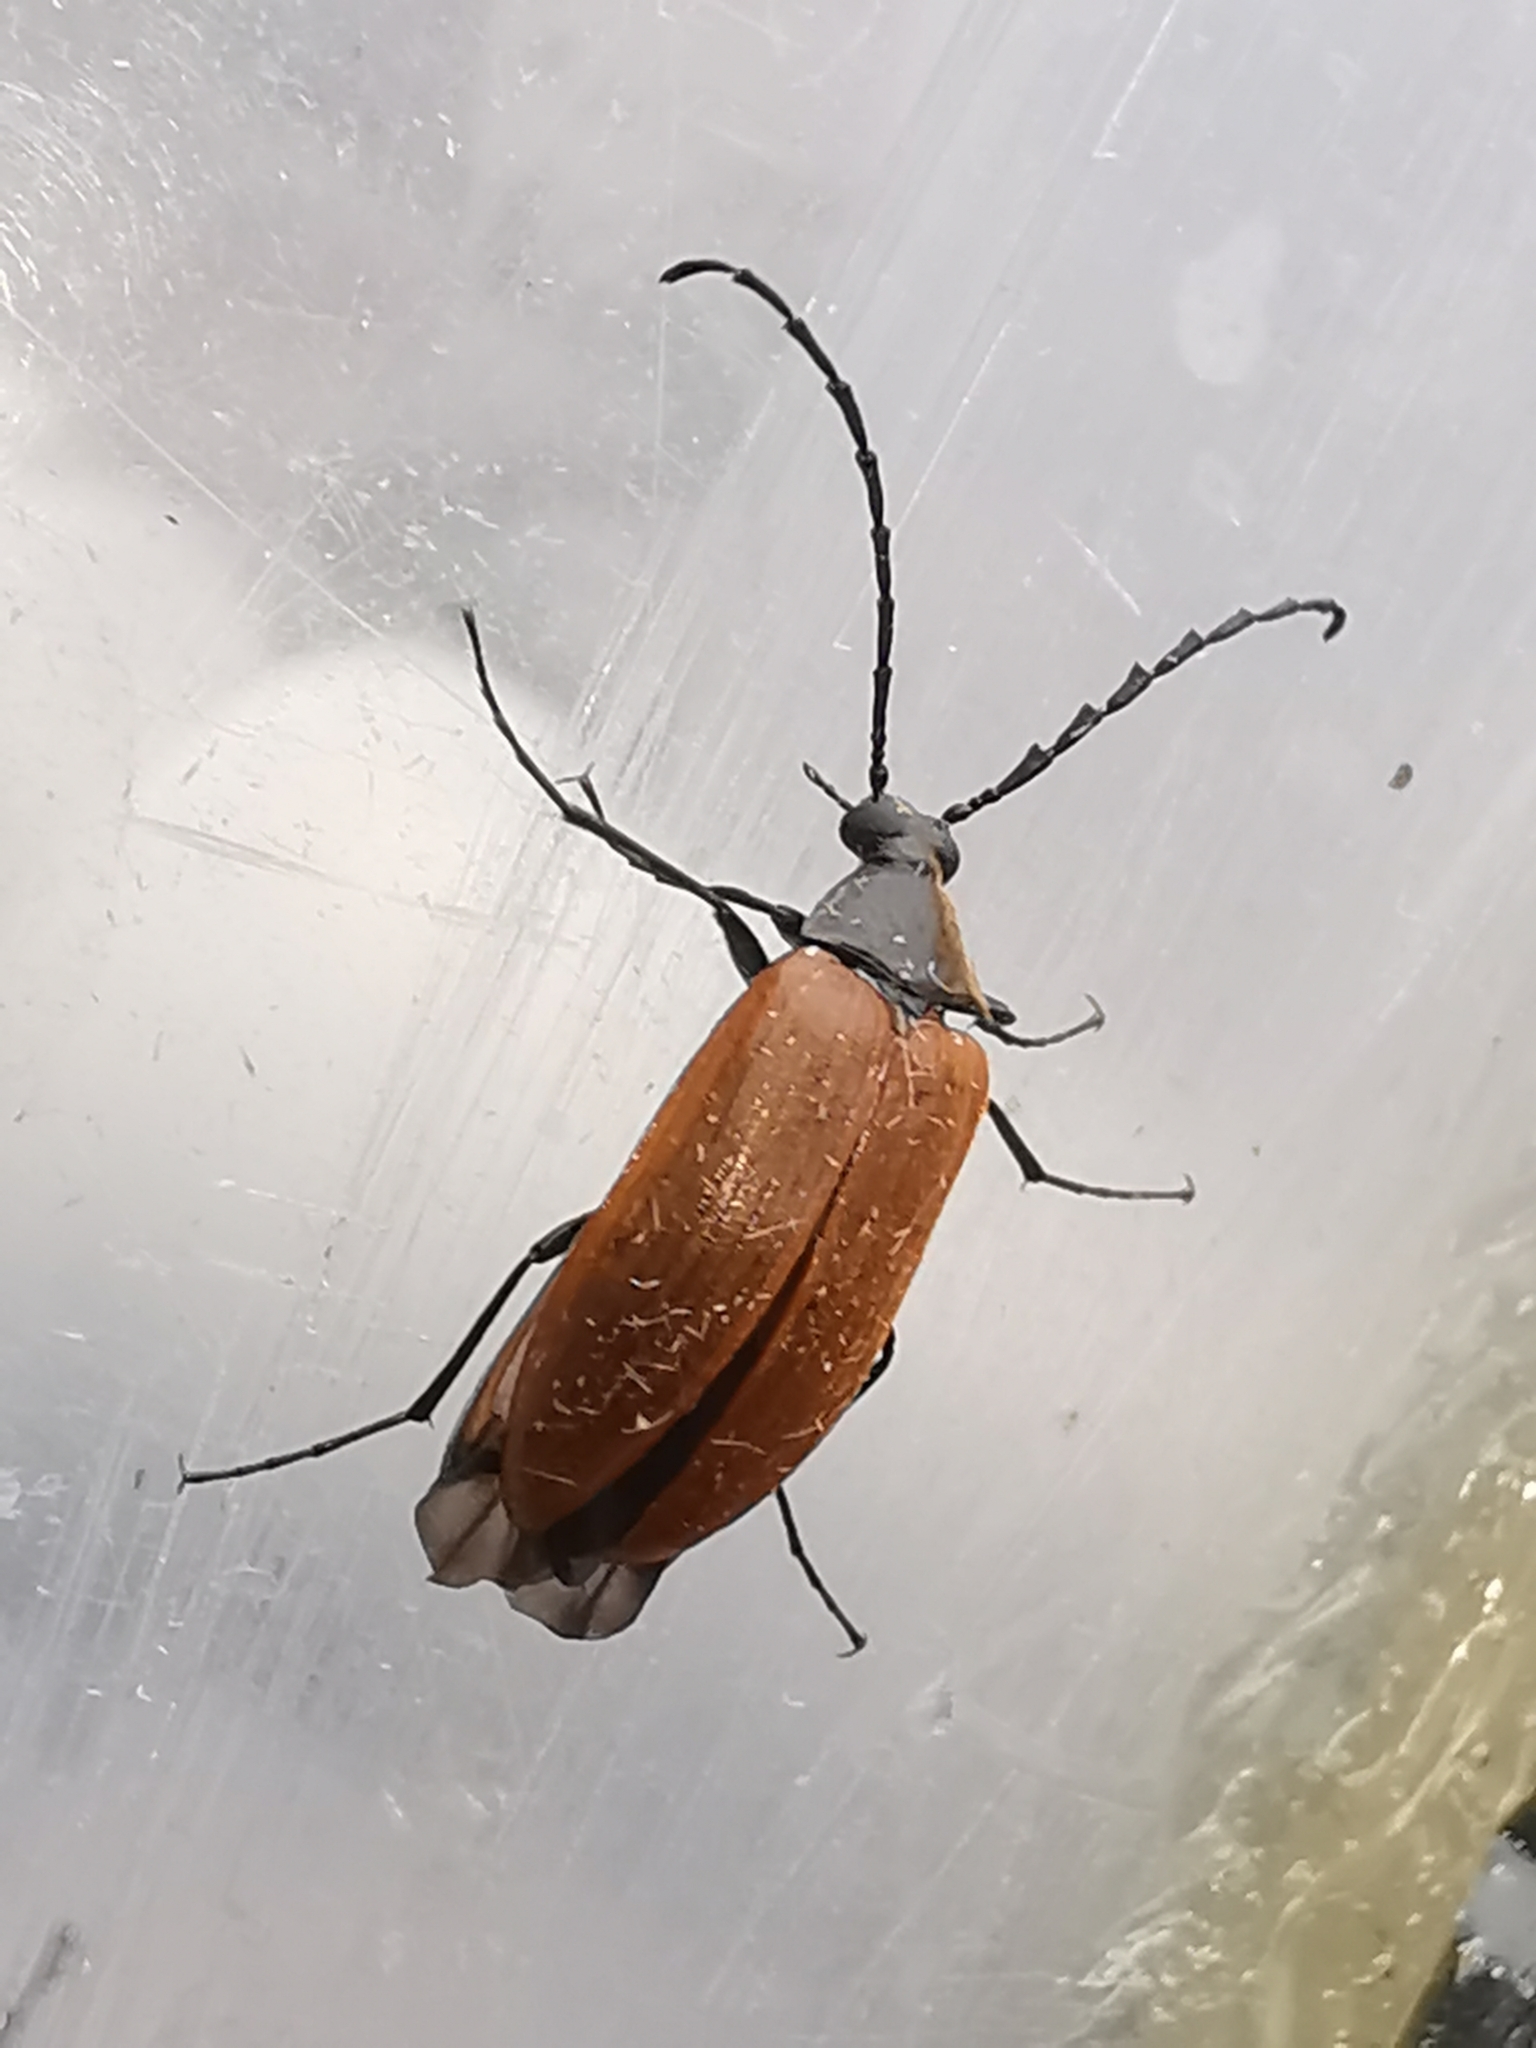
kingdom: Animalia
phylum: Arthropoda
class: Insecta
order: Coleoptera
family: Tenebrionidae
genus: Pseudocistela
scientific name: Pseudocistela ceramboides
